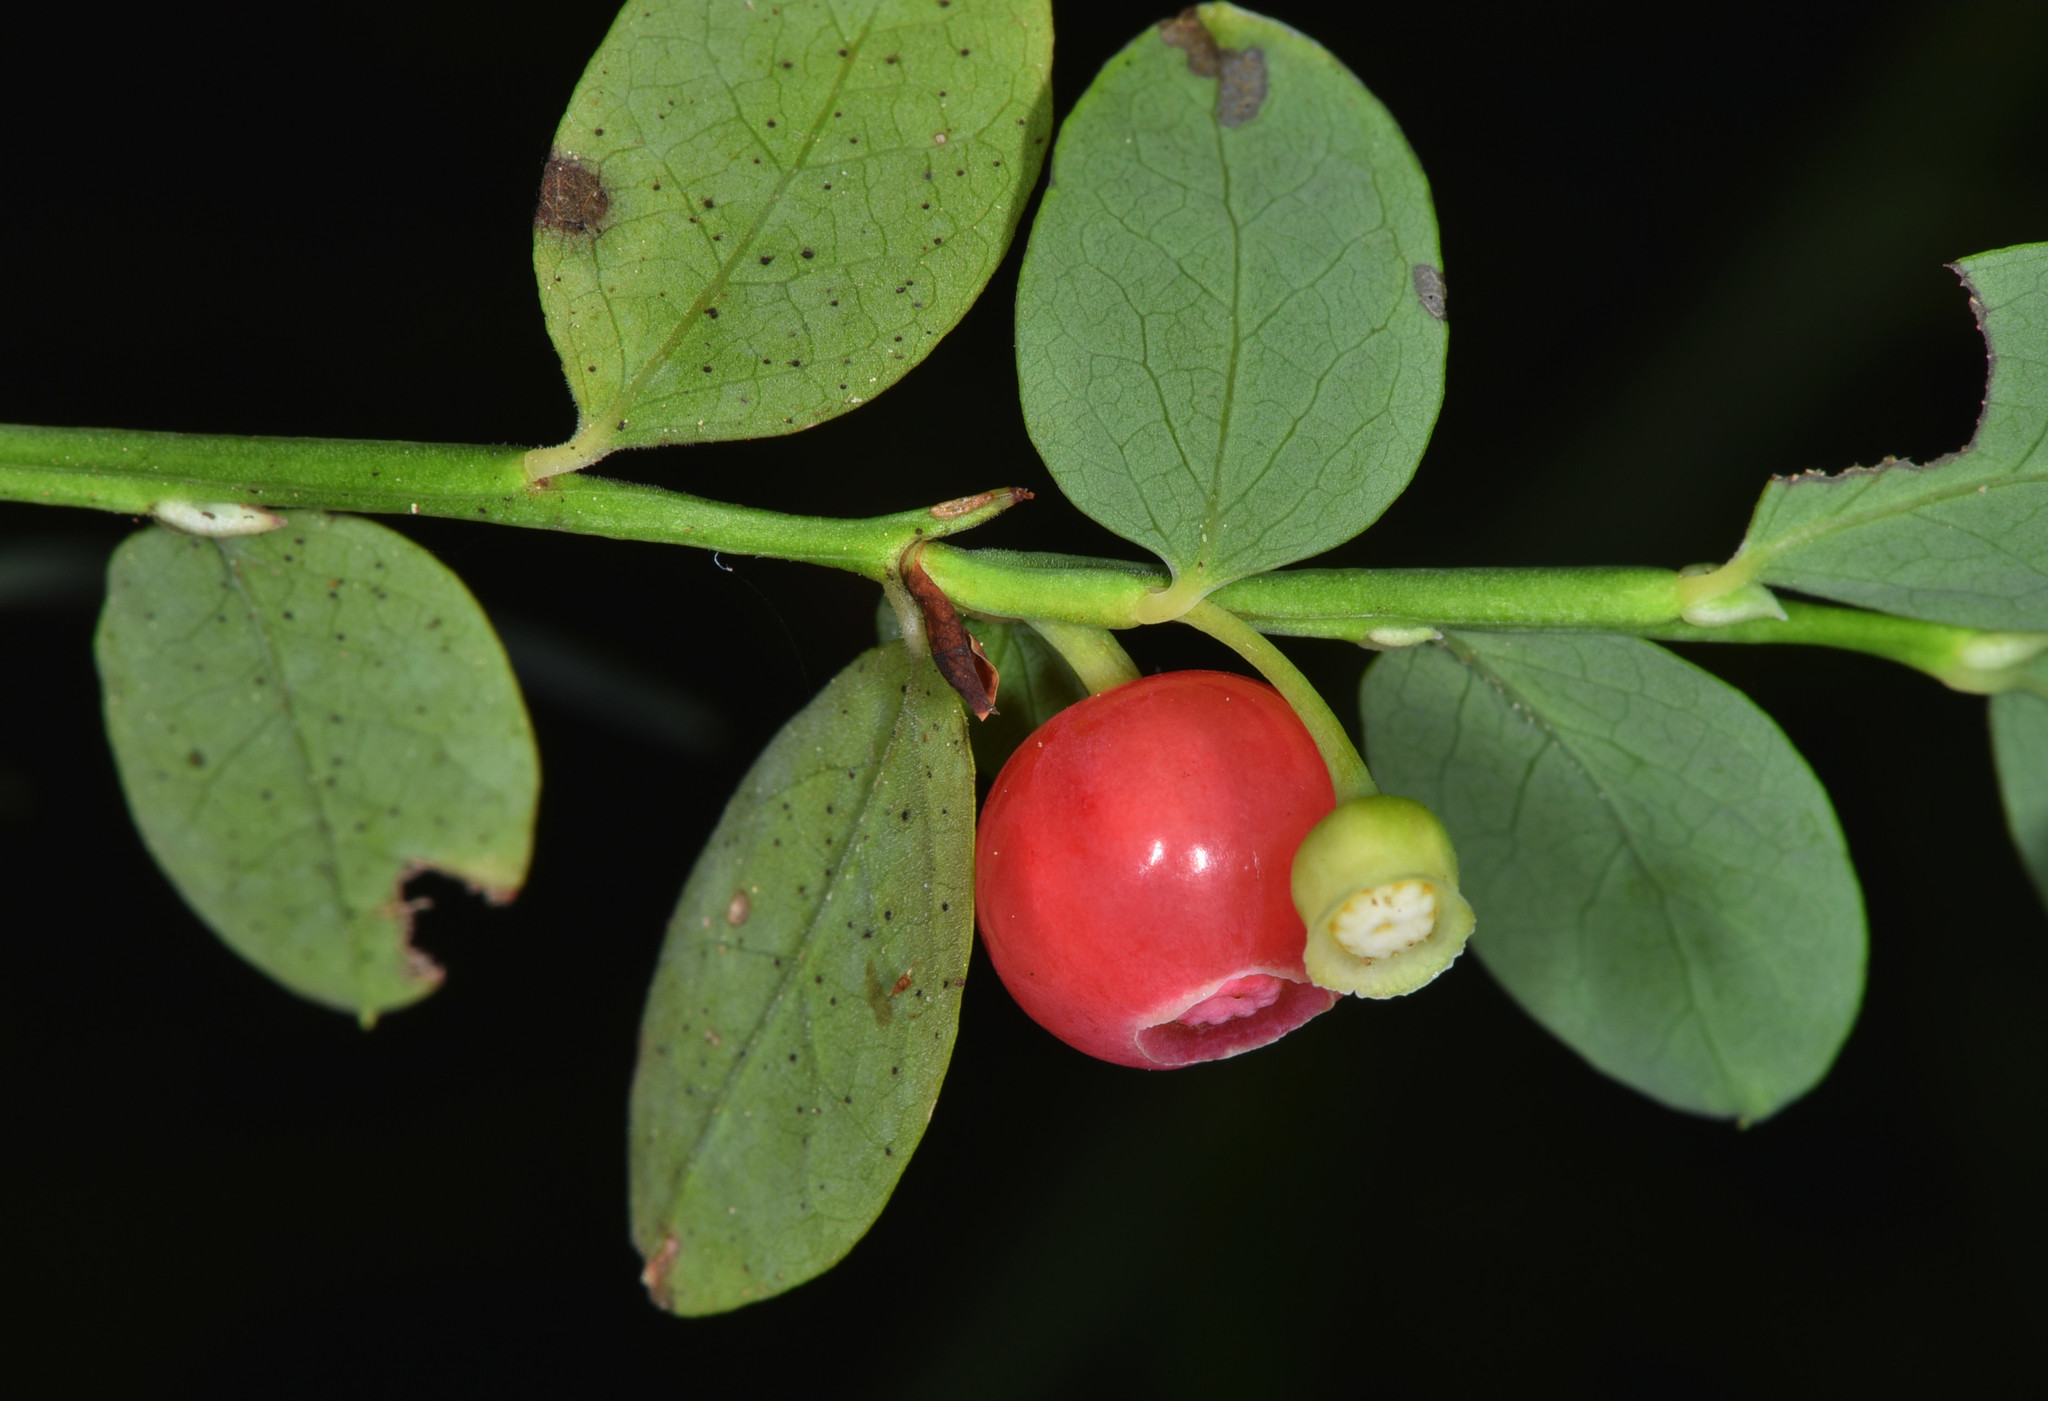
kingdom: Plantae
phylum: Tracheophyta
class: Magnoliopsida
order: Ericales
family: Ericaceae
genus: Vaccinium
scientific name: Vaccinium parvifolium
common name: Red-huckleberry
